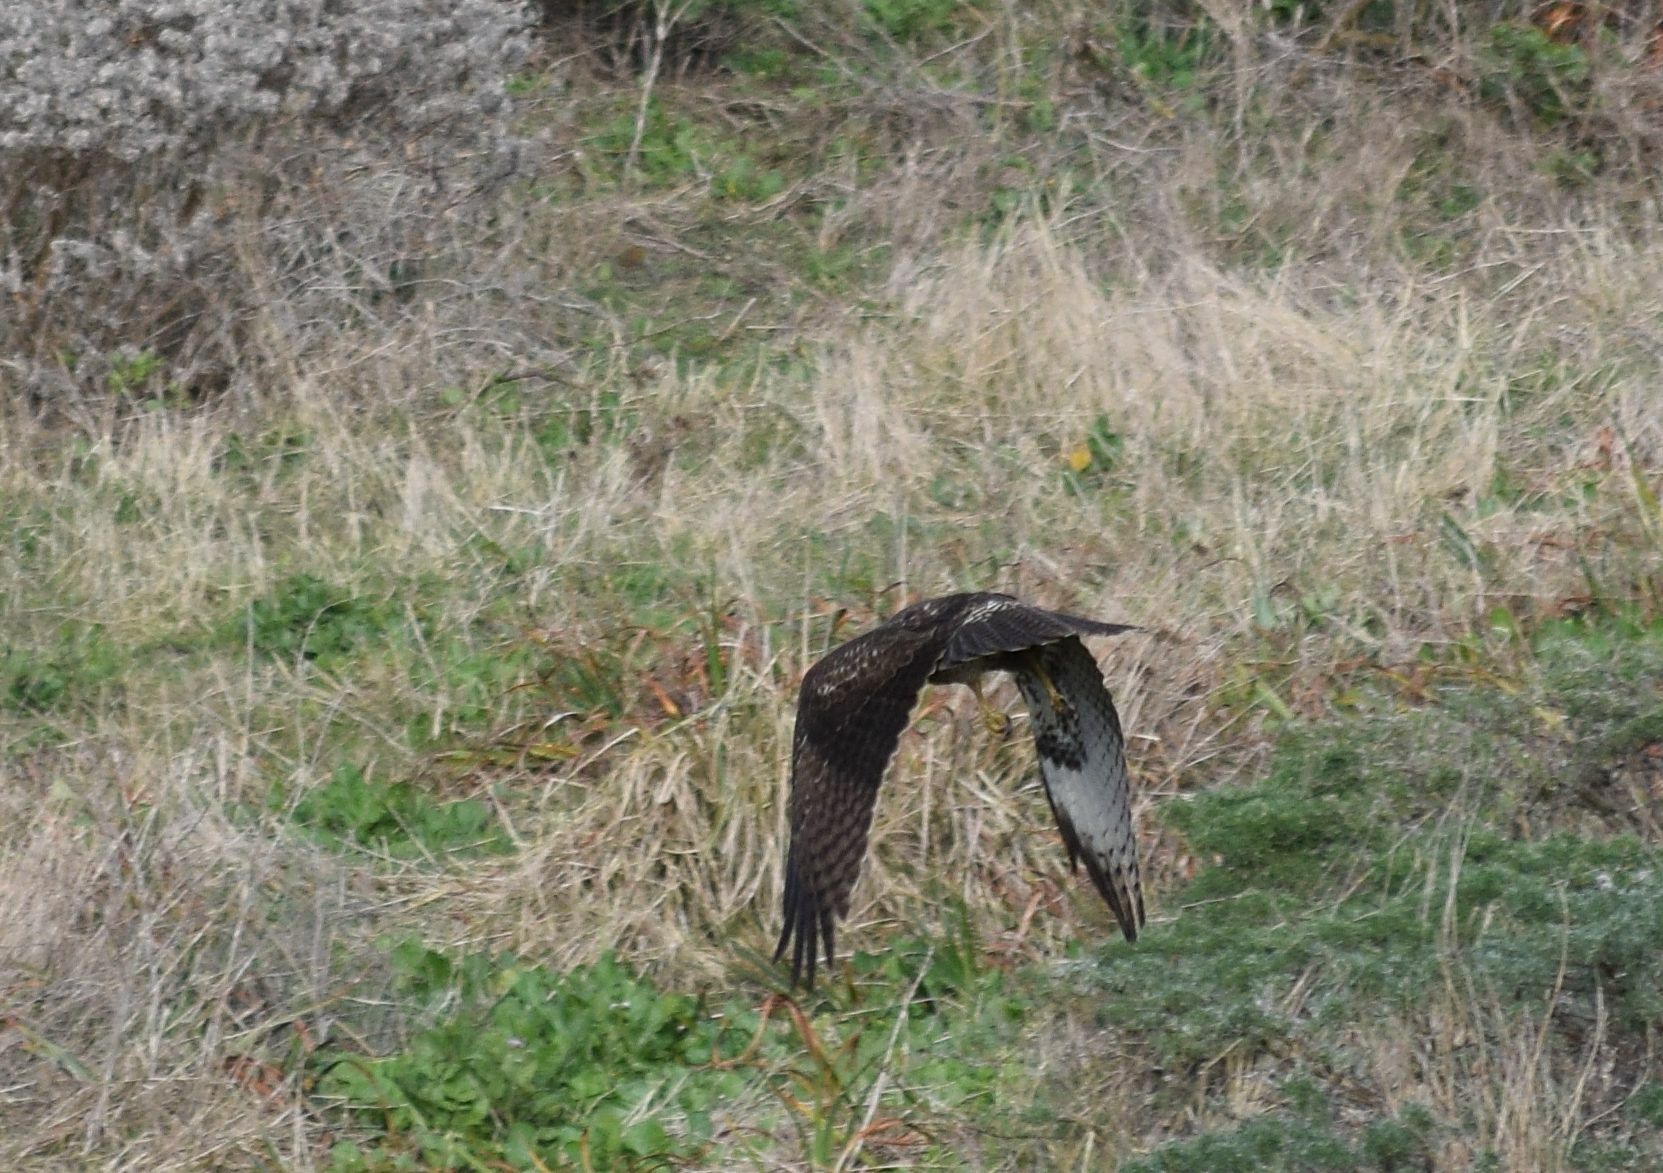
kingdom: Animalia
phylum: Chordata
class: Aves
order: Accipitriformes
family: Accipitridae
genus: Buteo
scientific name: Buteo jamaicensis
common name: Red-tailed hawk
